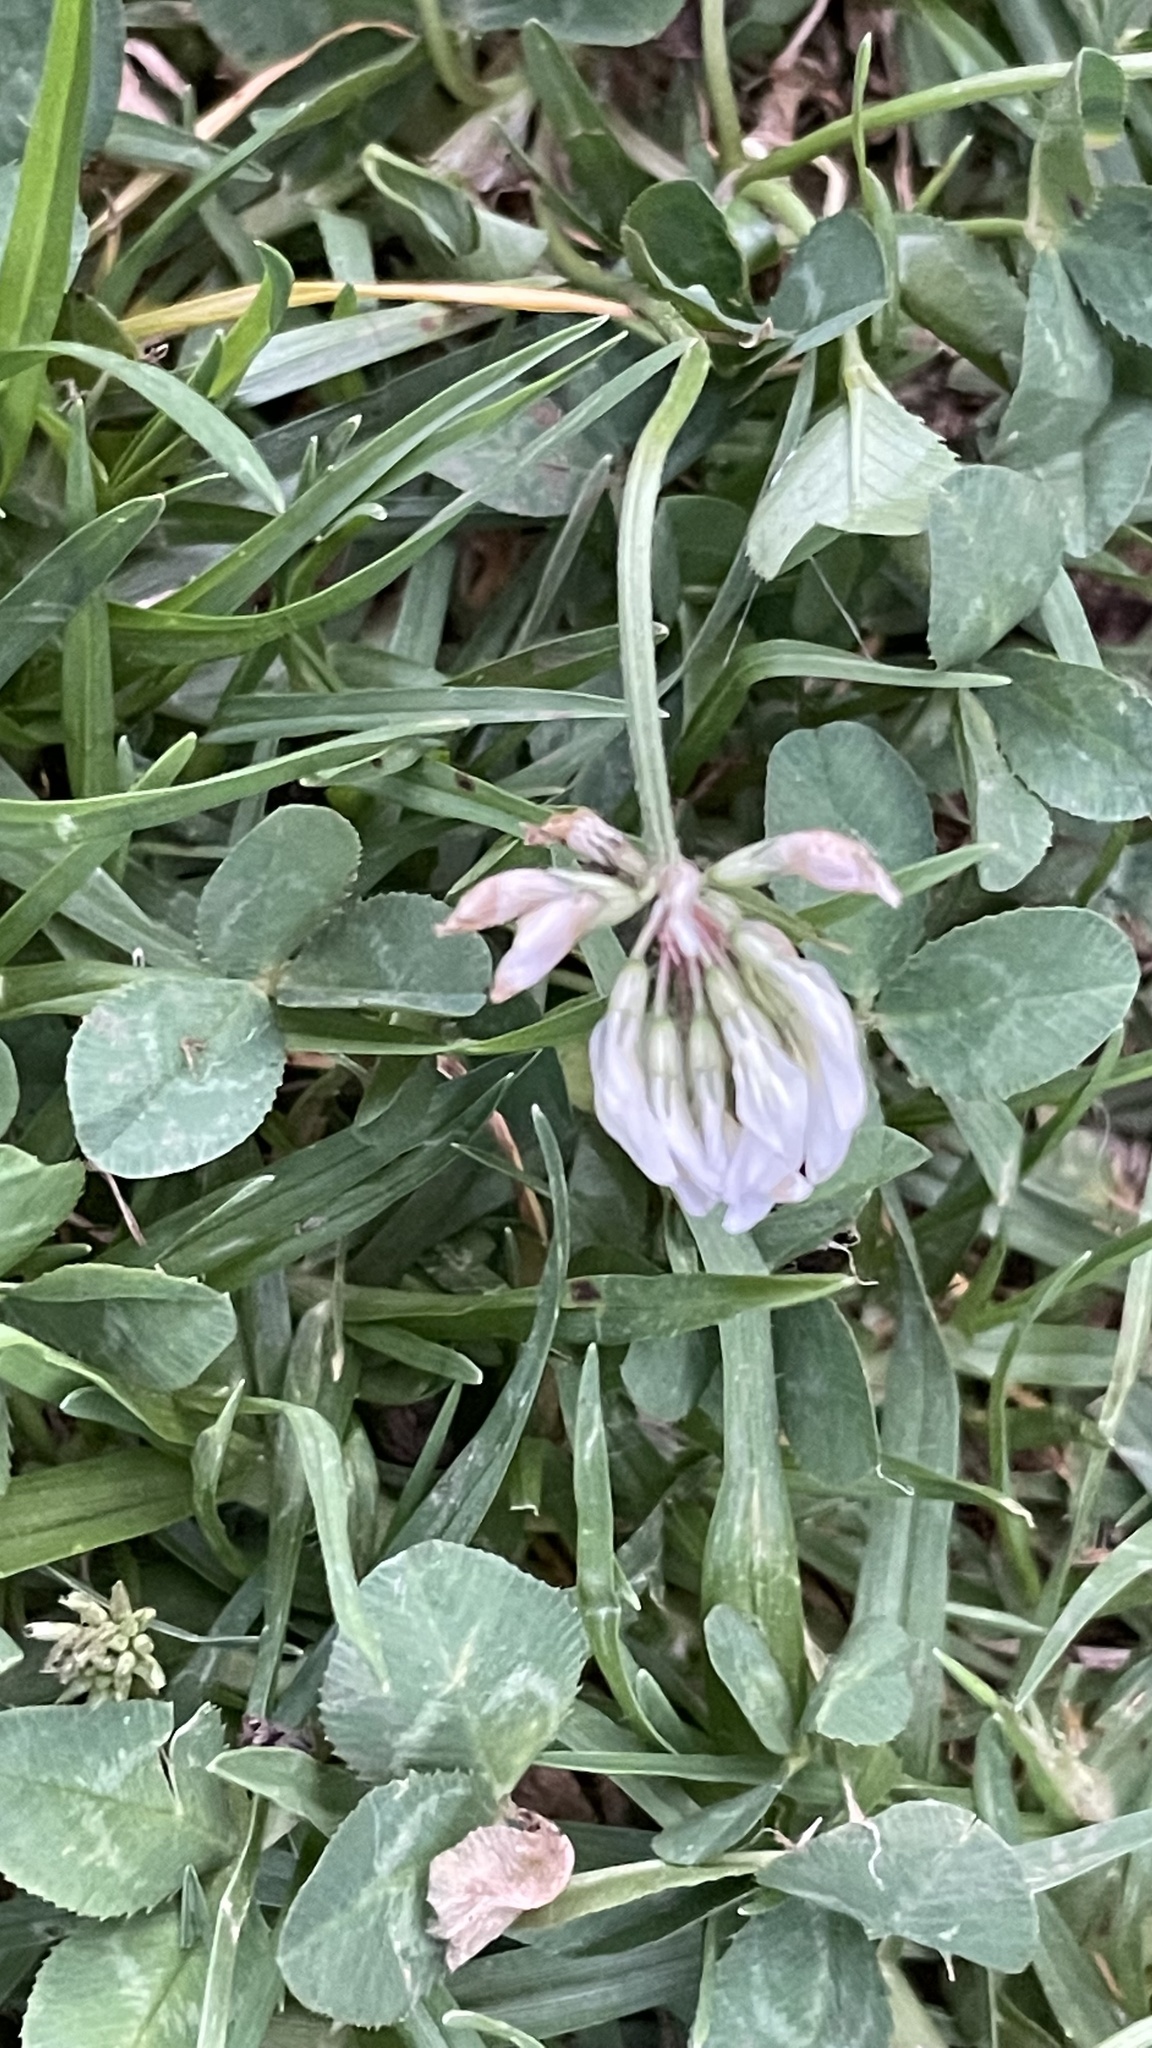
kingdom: Plantae
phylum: Tracheophyta
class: Magnoliopsida
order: Fabales
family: Fabaceae
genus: Trifolium
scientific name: Trifolium repens
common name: White clover
